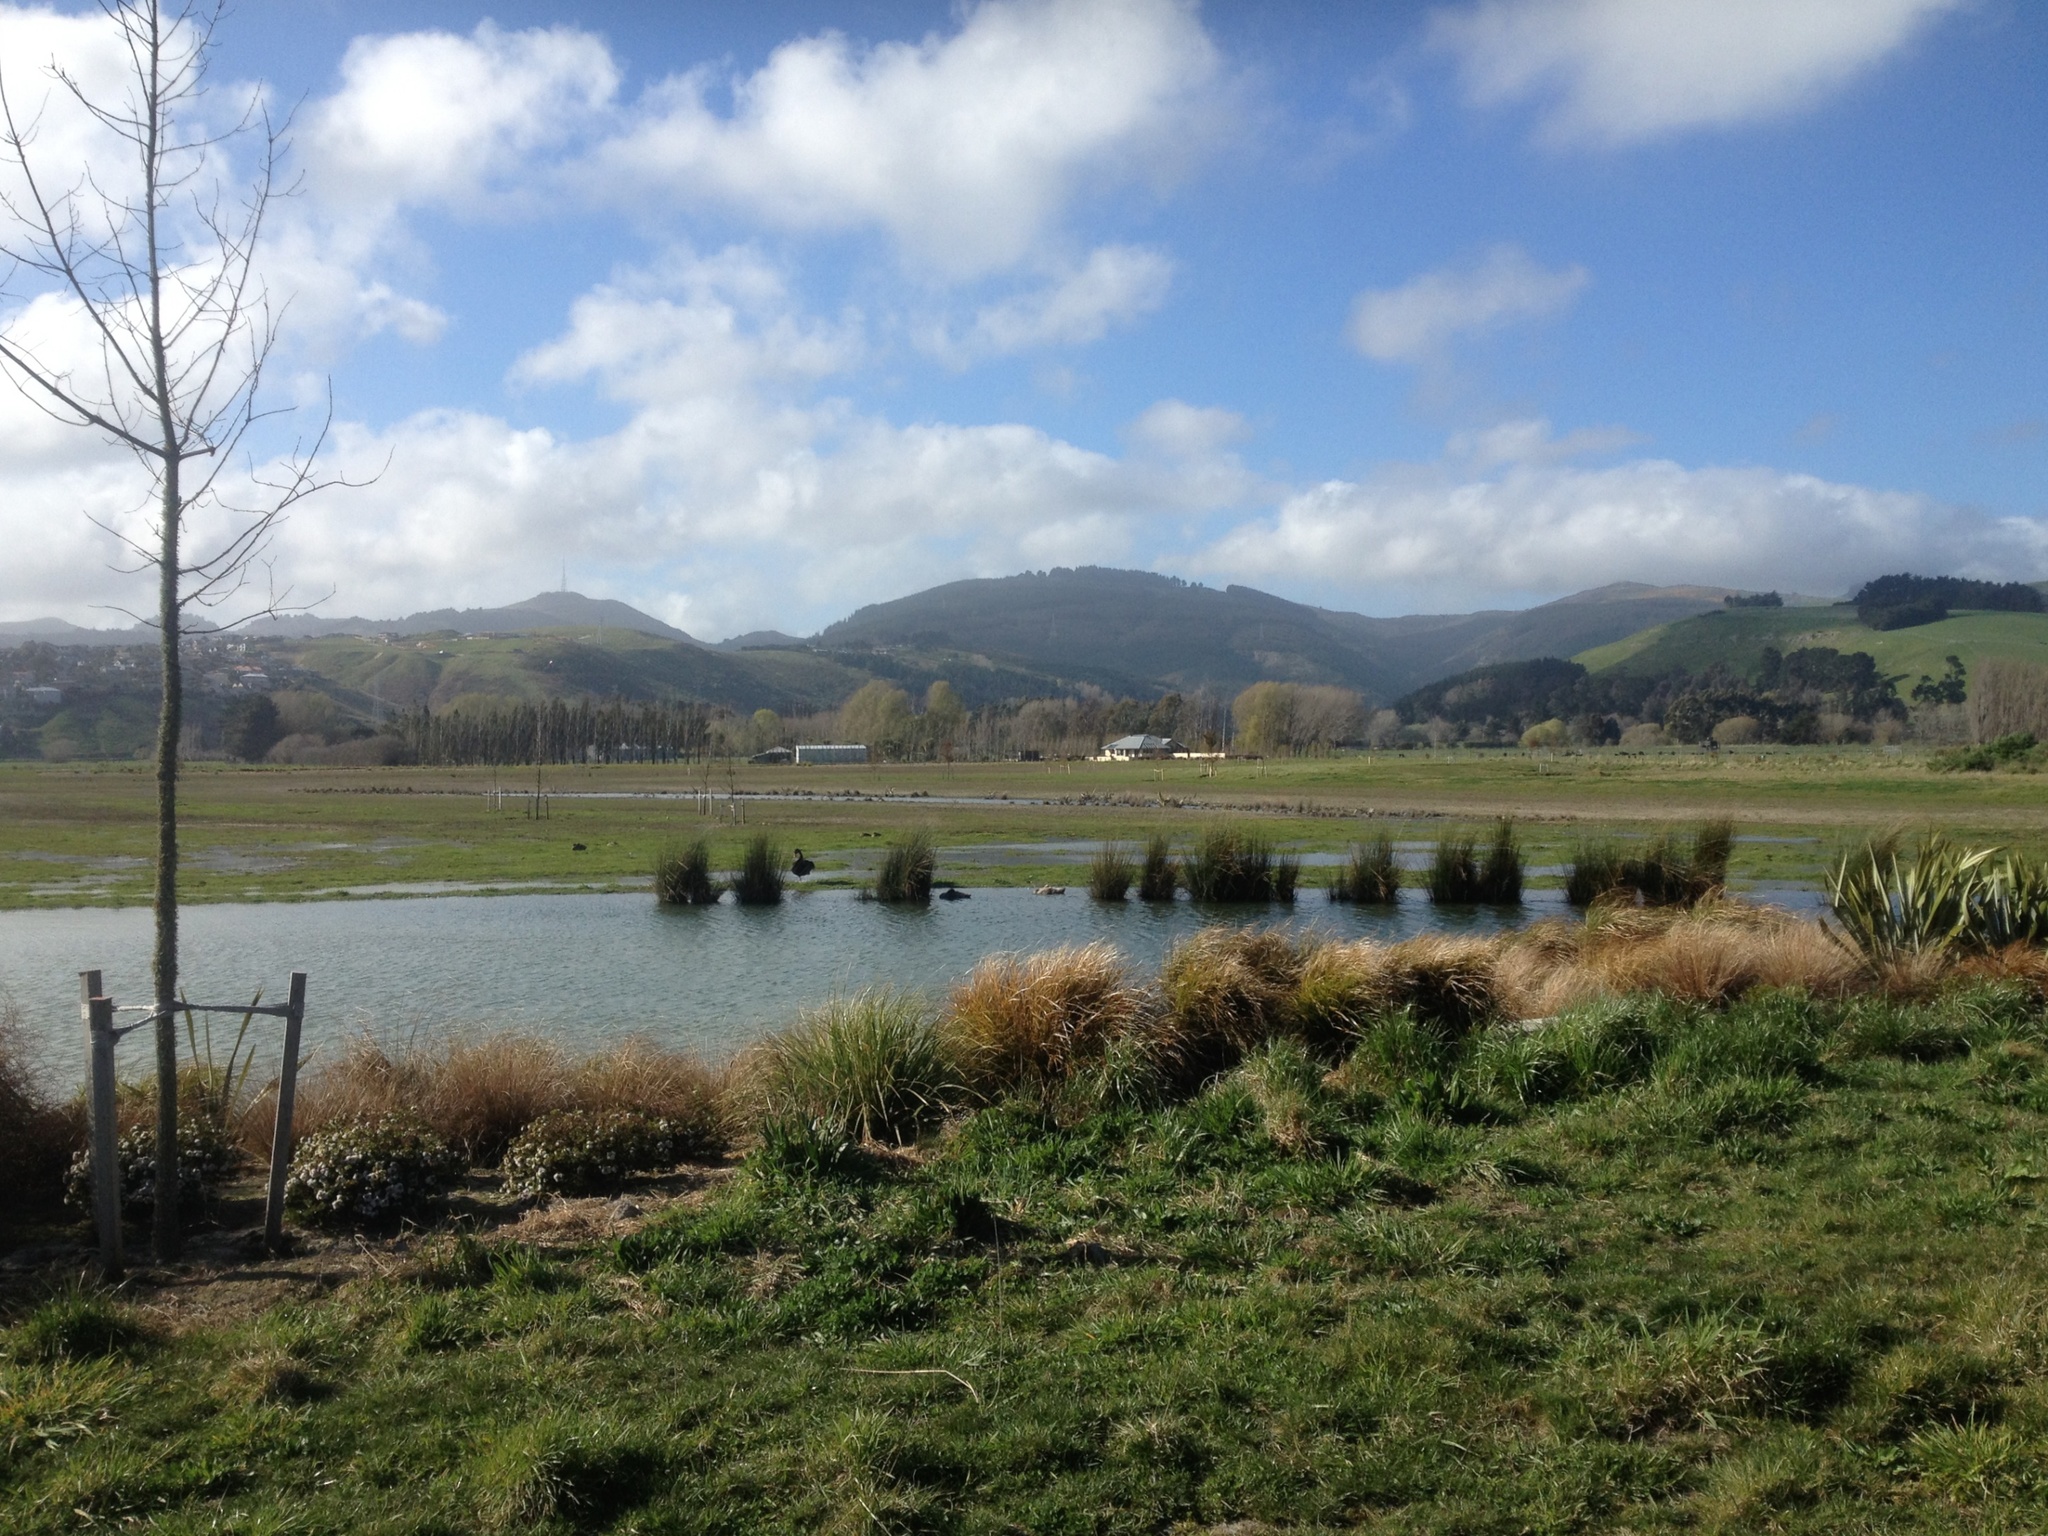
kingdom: Animalia
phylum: Chordata
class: Aves
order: Anseriformes
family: Anatidae
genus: Cygnus
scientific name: Cygnus atratus
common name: Black swan
